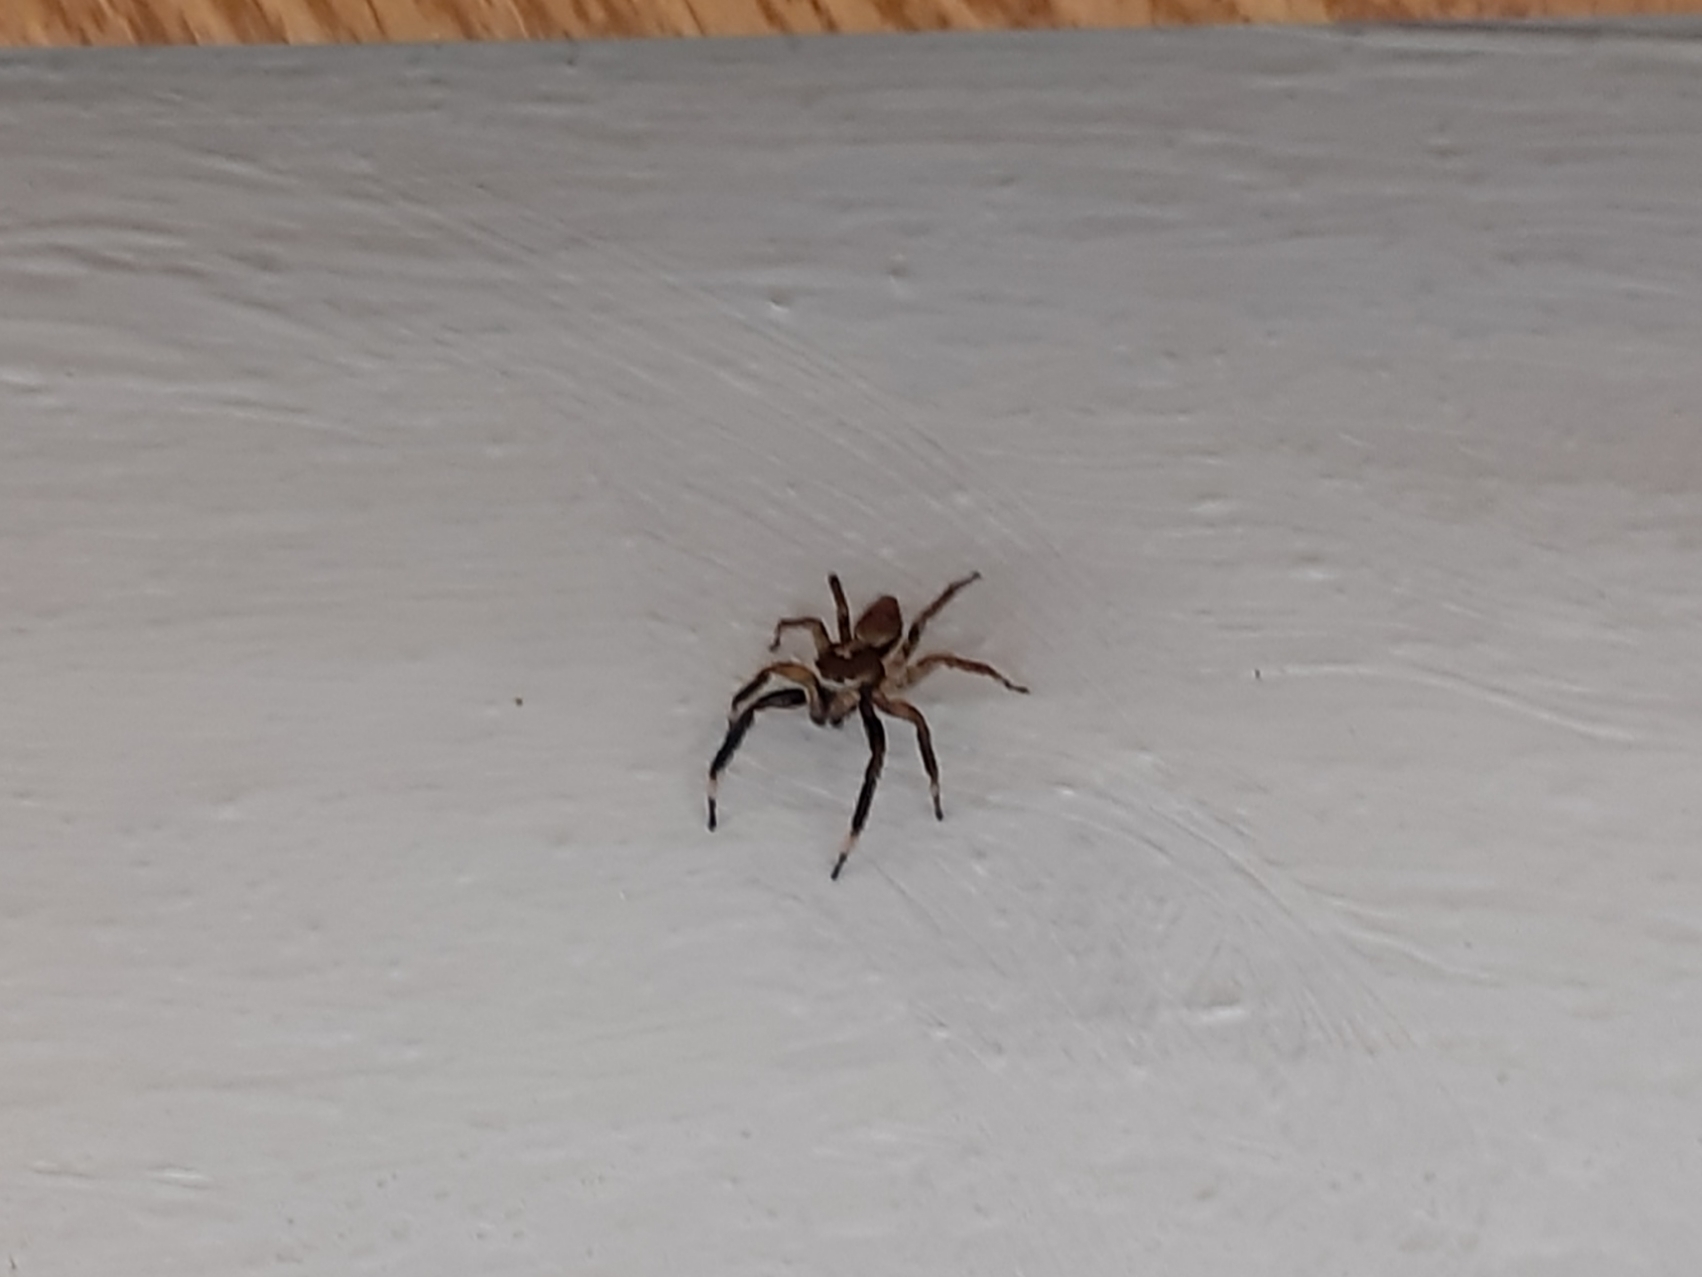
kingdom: Animalia
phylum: Arthropoda
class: Arachnida
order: Araneae
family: Salticidae
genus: Asaphobelis
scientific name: Asaphobelis physonychus
